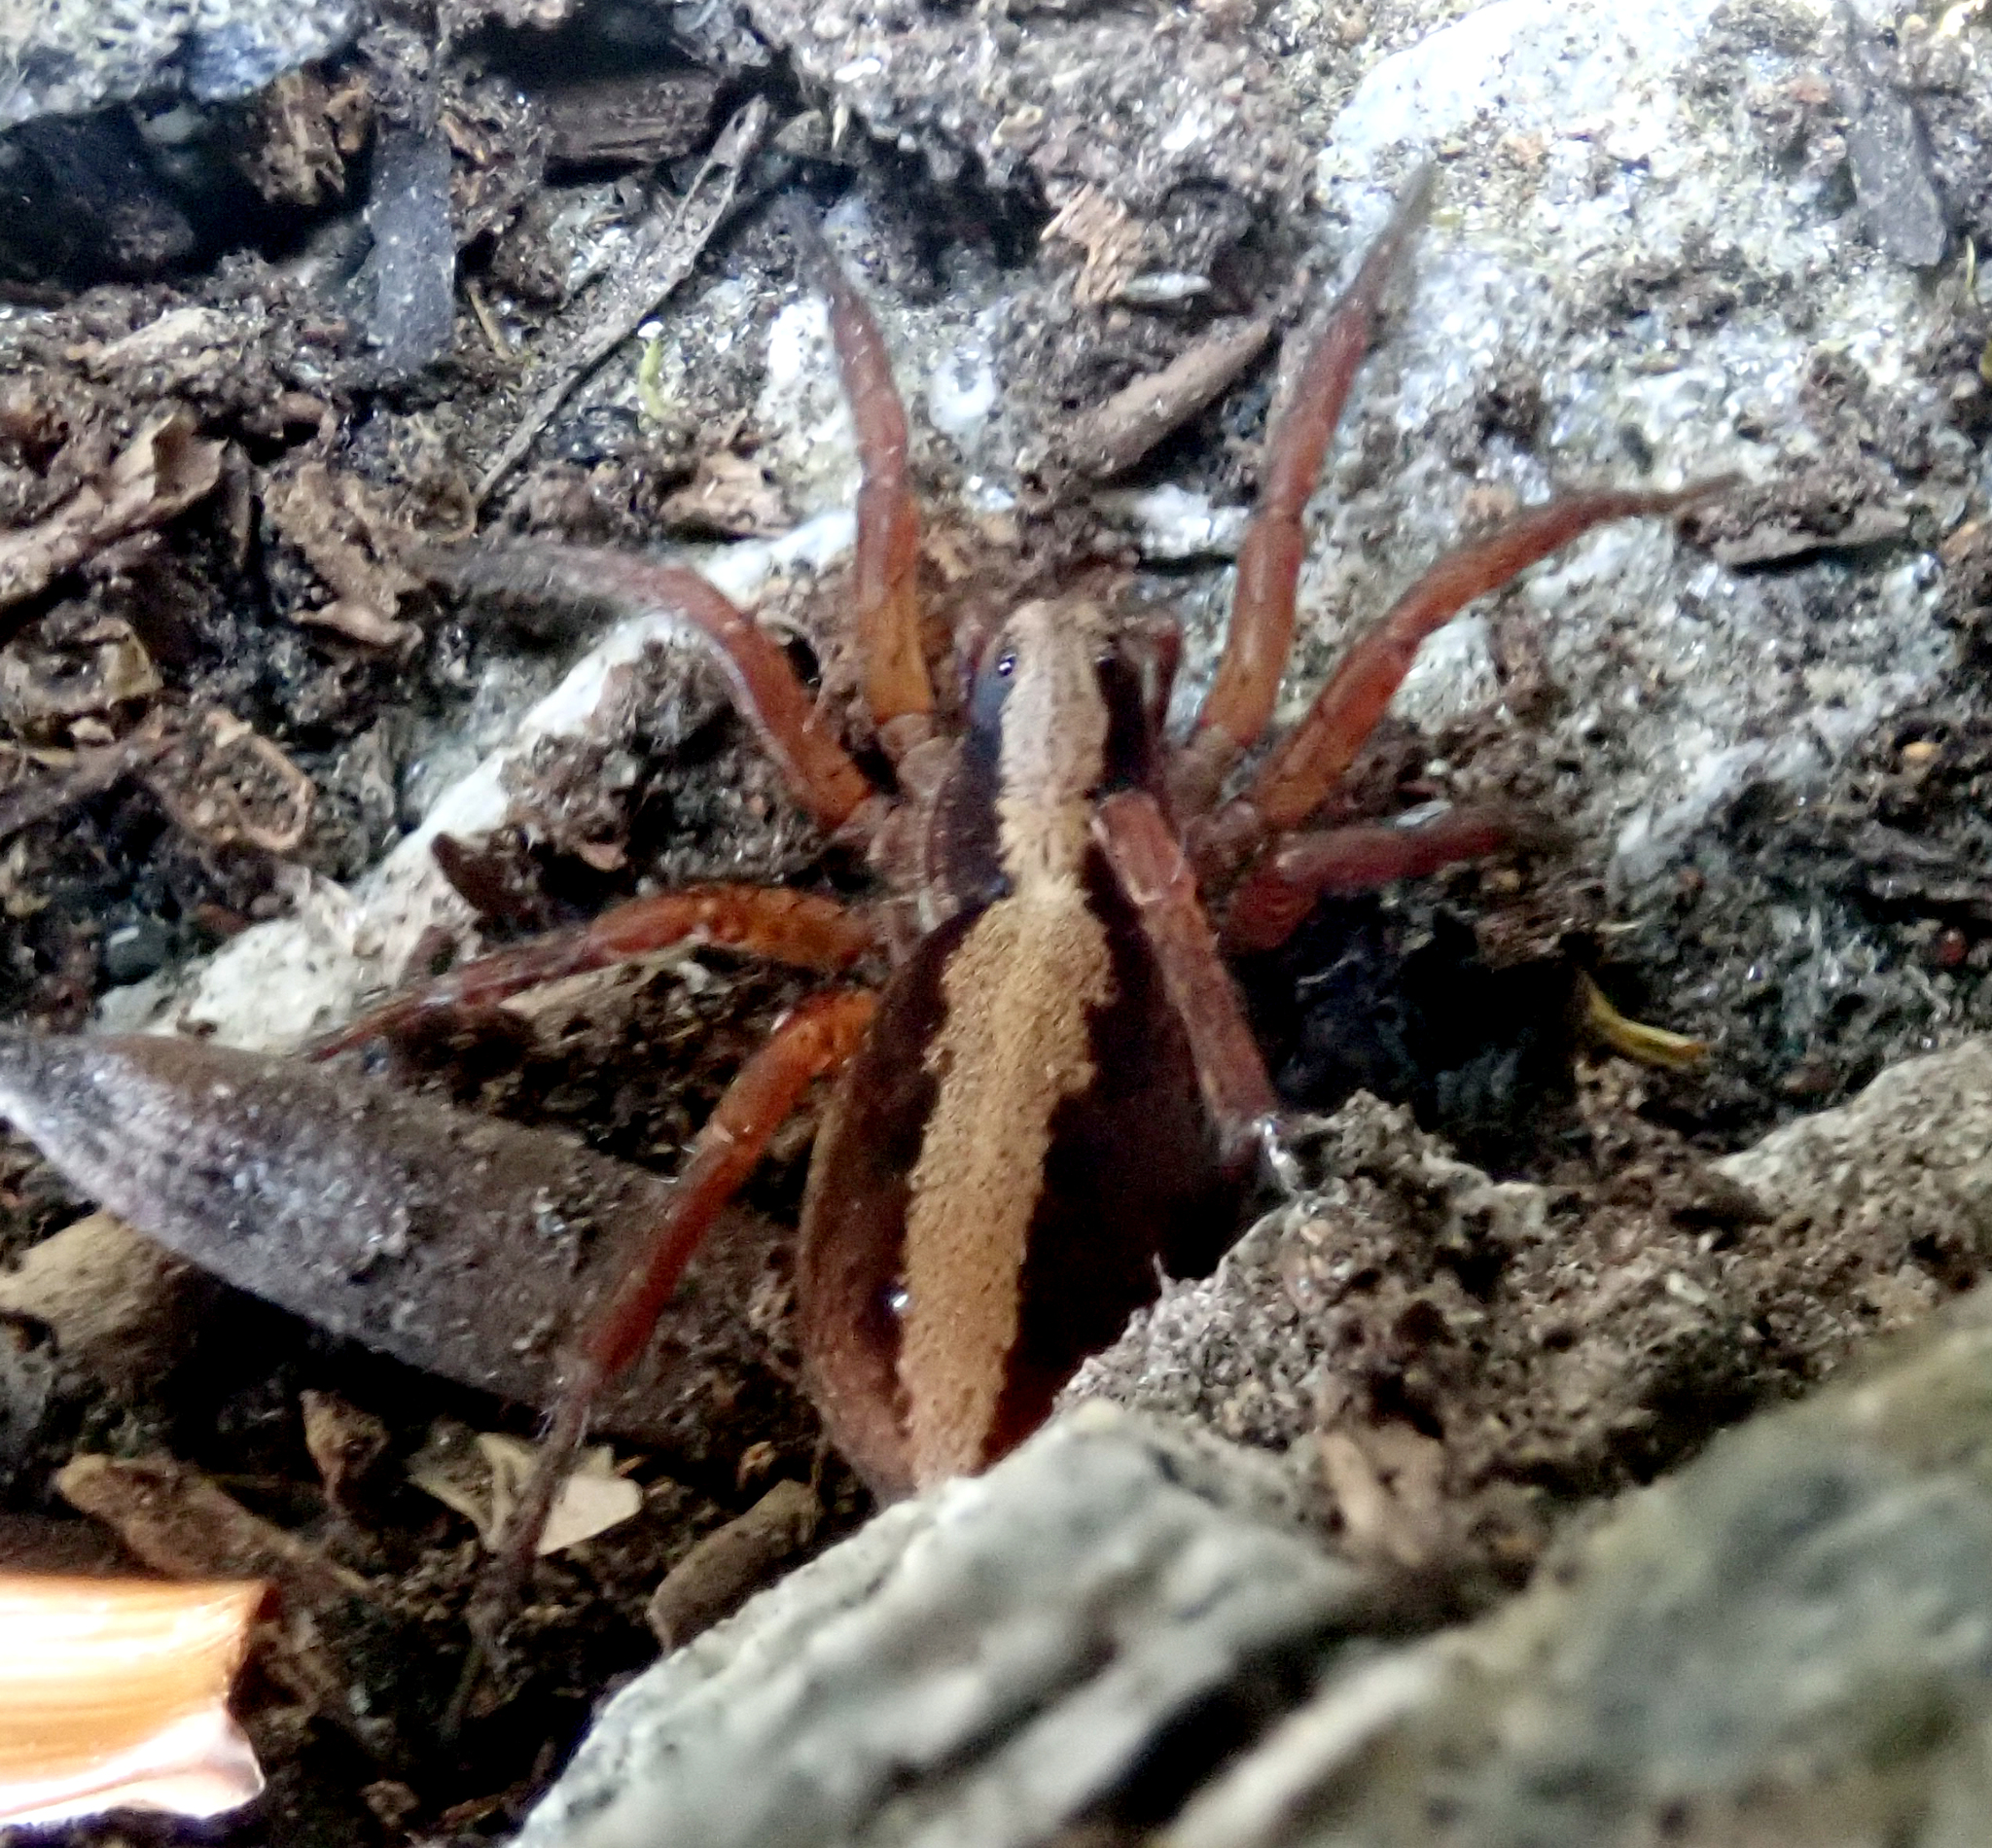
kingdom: Animalia
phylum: Arthropoda
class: Arachnida
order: Araneae
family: Lycosidae
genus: Anoteropsis
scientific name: Anoteropsis ralphi
